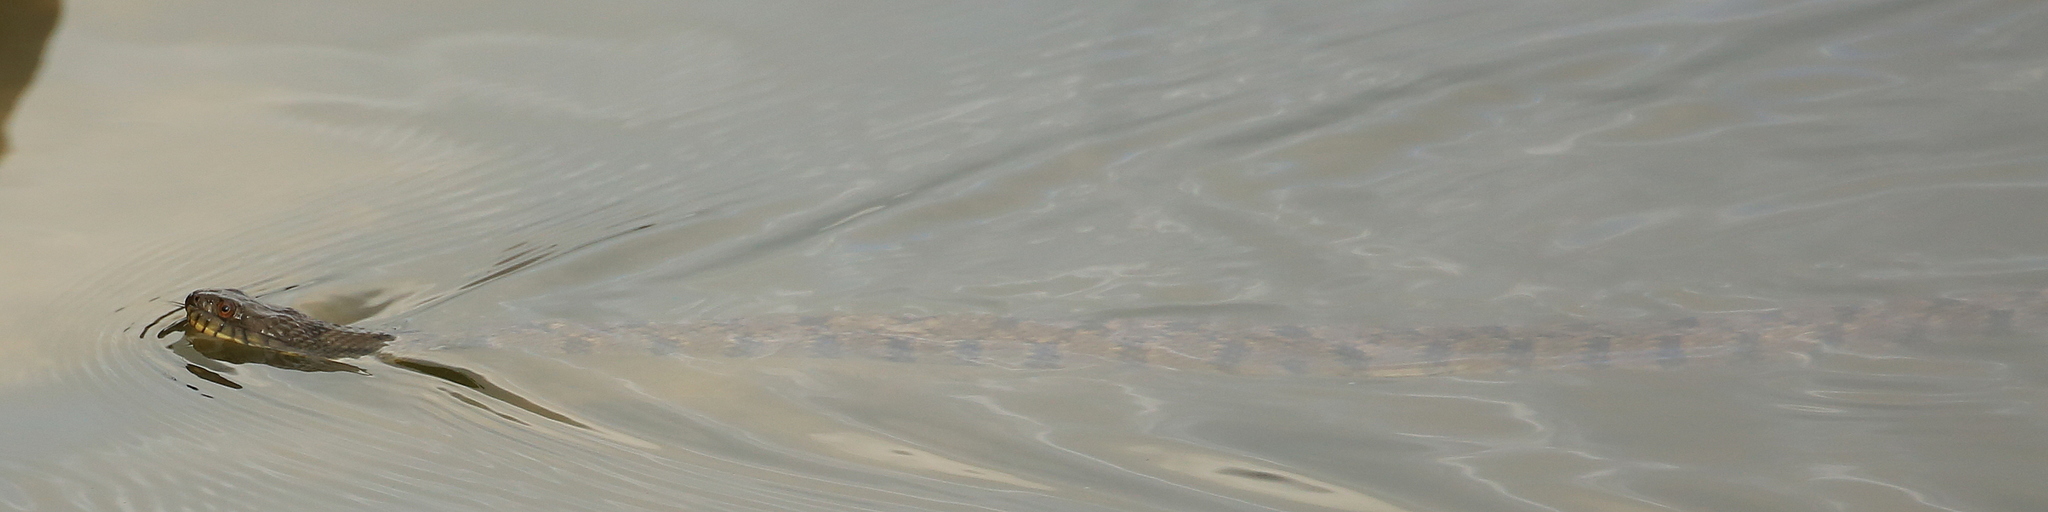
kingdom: Animalia
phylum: Chordata
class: Squamata
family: Colubridae
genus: Nerodia
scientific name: Nerodia rhombifer
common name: Diamondback water snake
